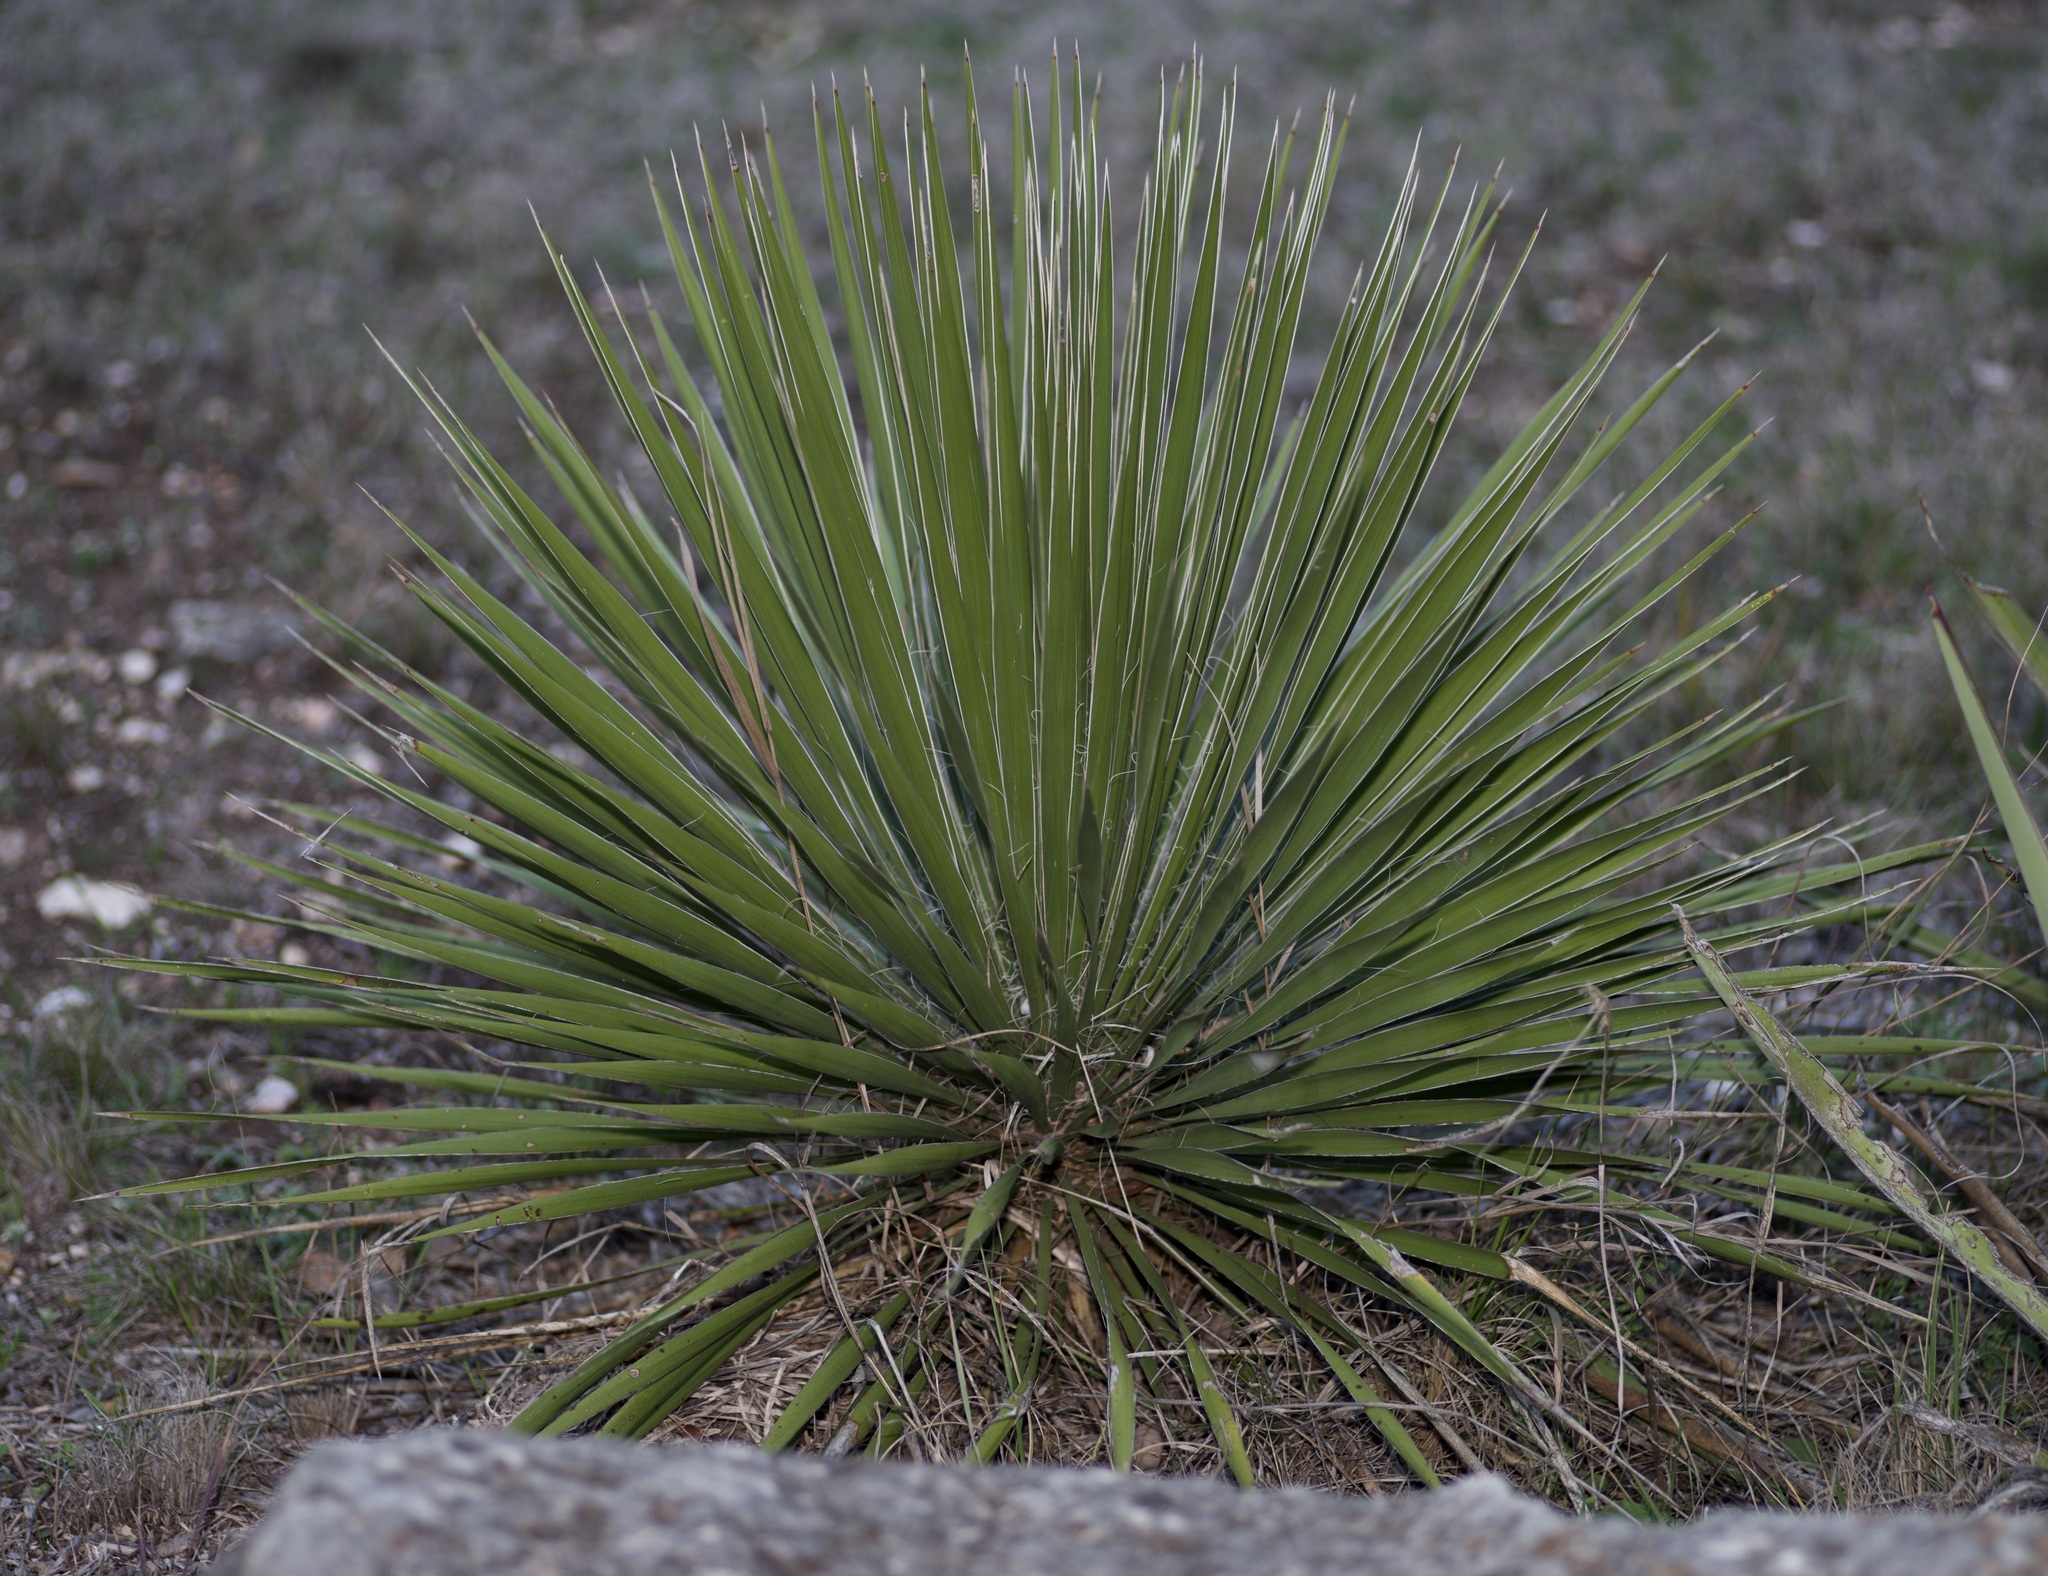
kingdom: Plantae
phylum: Tracheophyta
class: Liliopsida
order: Asparagales
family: Asparagaceae
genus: Yucca
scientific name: Yucca constricta
